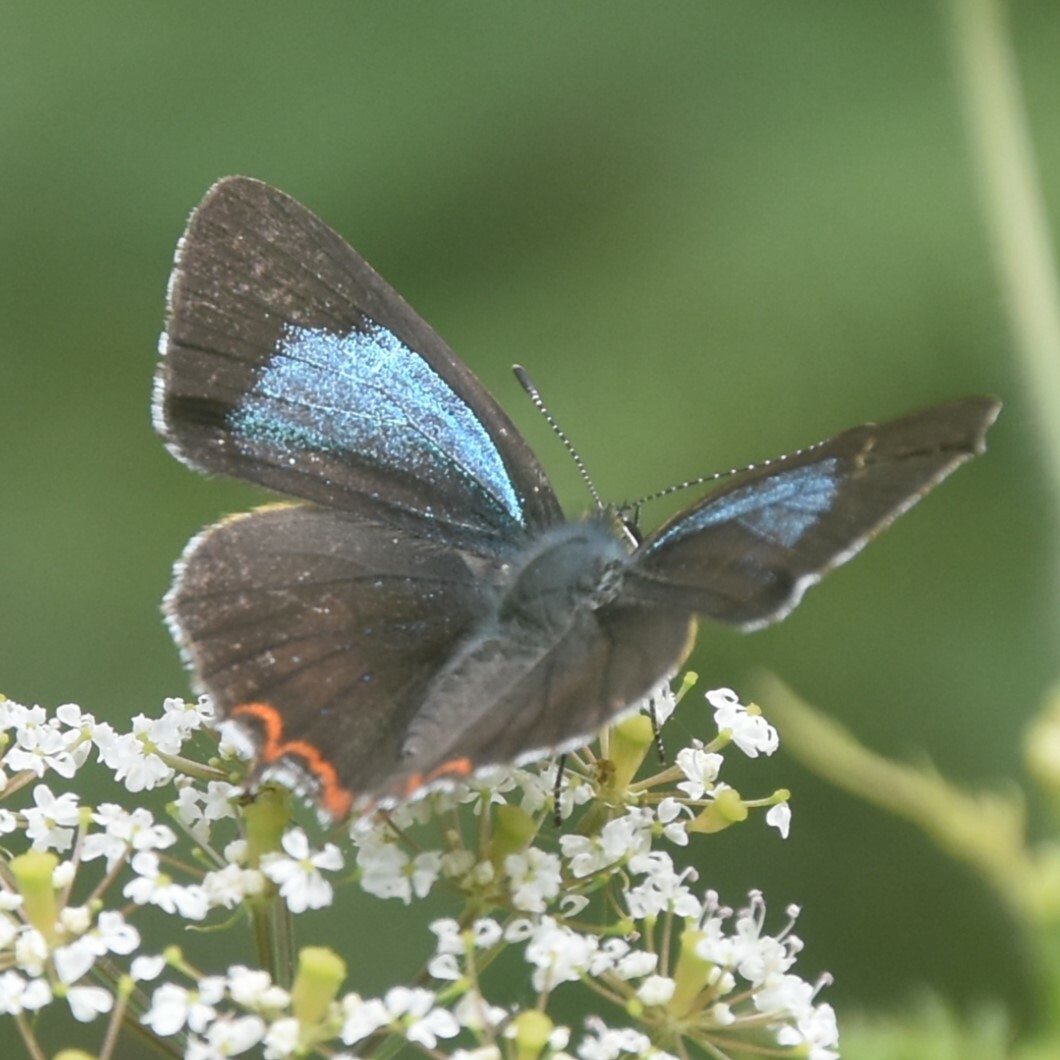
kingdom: Animalia
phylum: Arthropoda
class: Insecta
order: Lepidoptera
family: Lycaenidae
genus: Heliophorus
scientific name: Heliophorus
